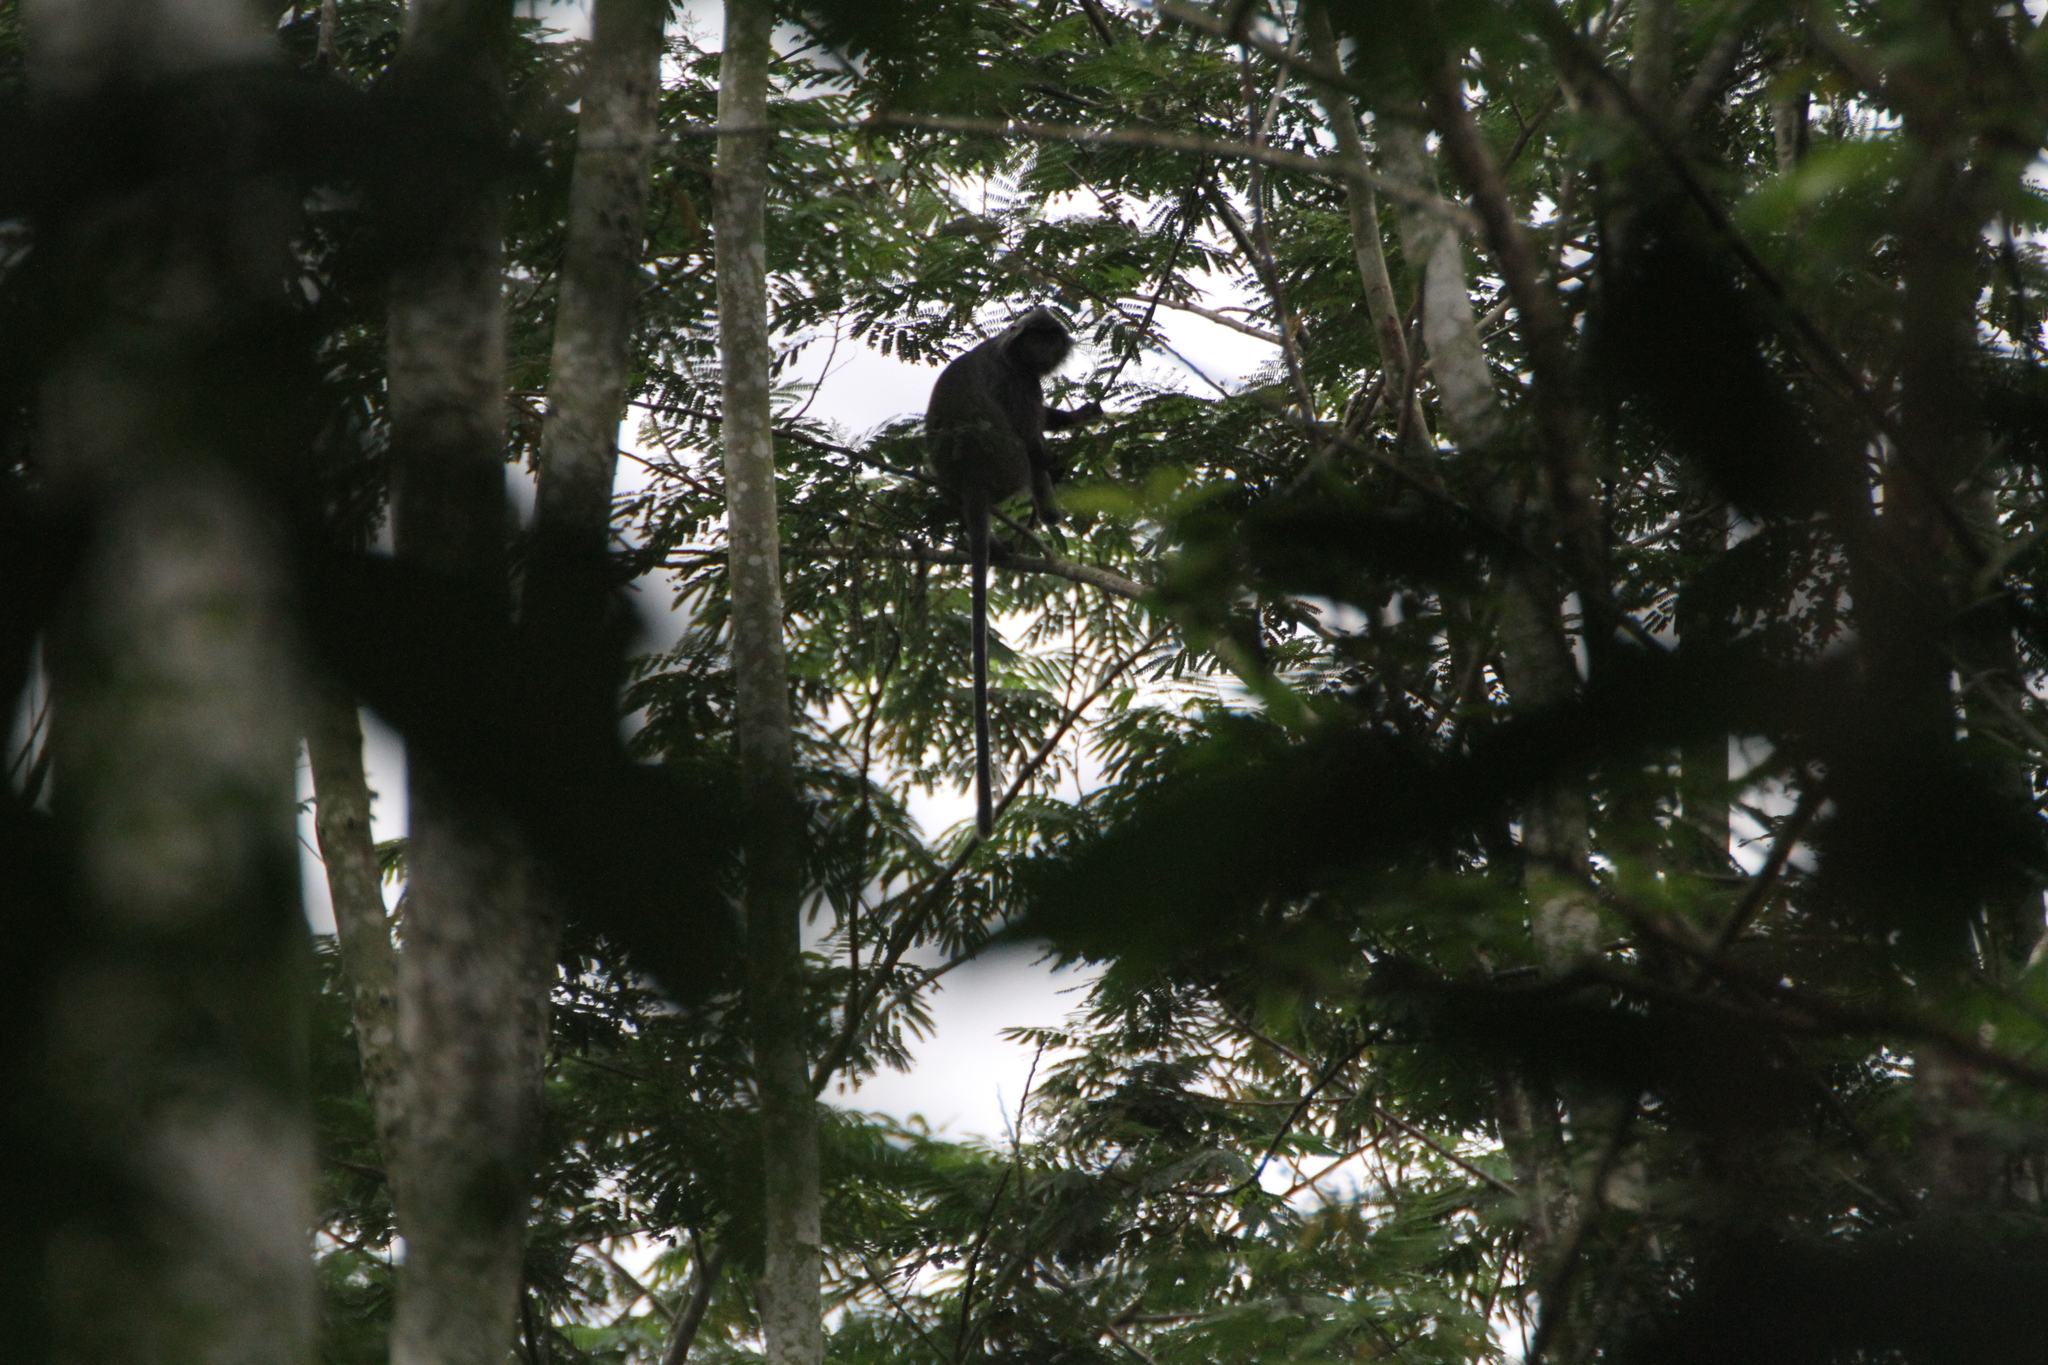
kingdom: Animalia
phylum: Chordata
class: Mammalia
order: Primates
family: Cercopithecidae
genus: Trachypithecus
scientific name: Trachypithecus cristatus
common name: Silvery lutung
